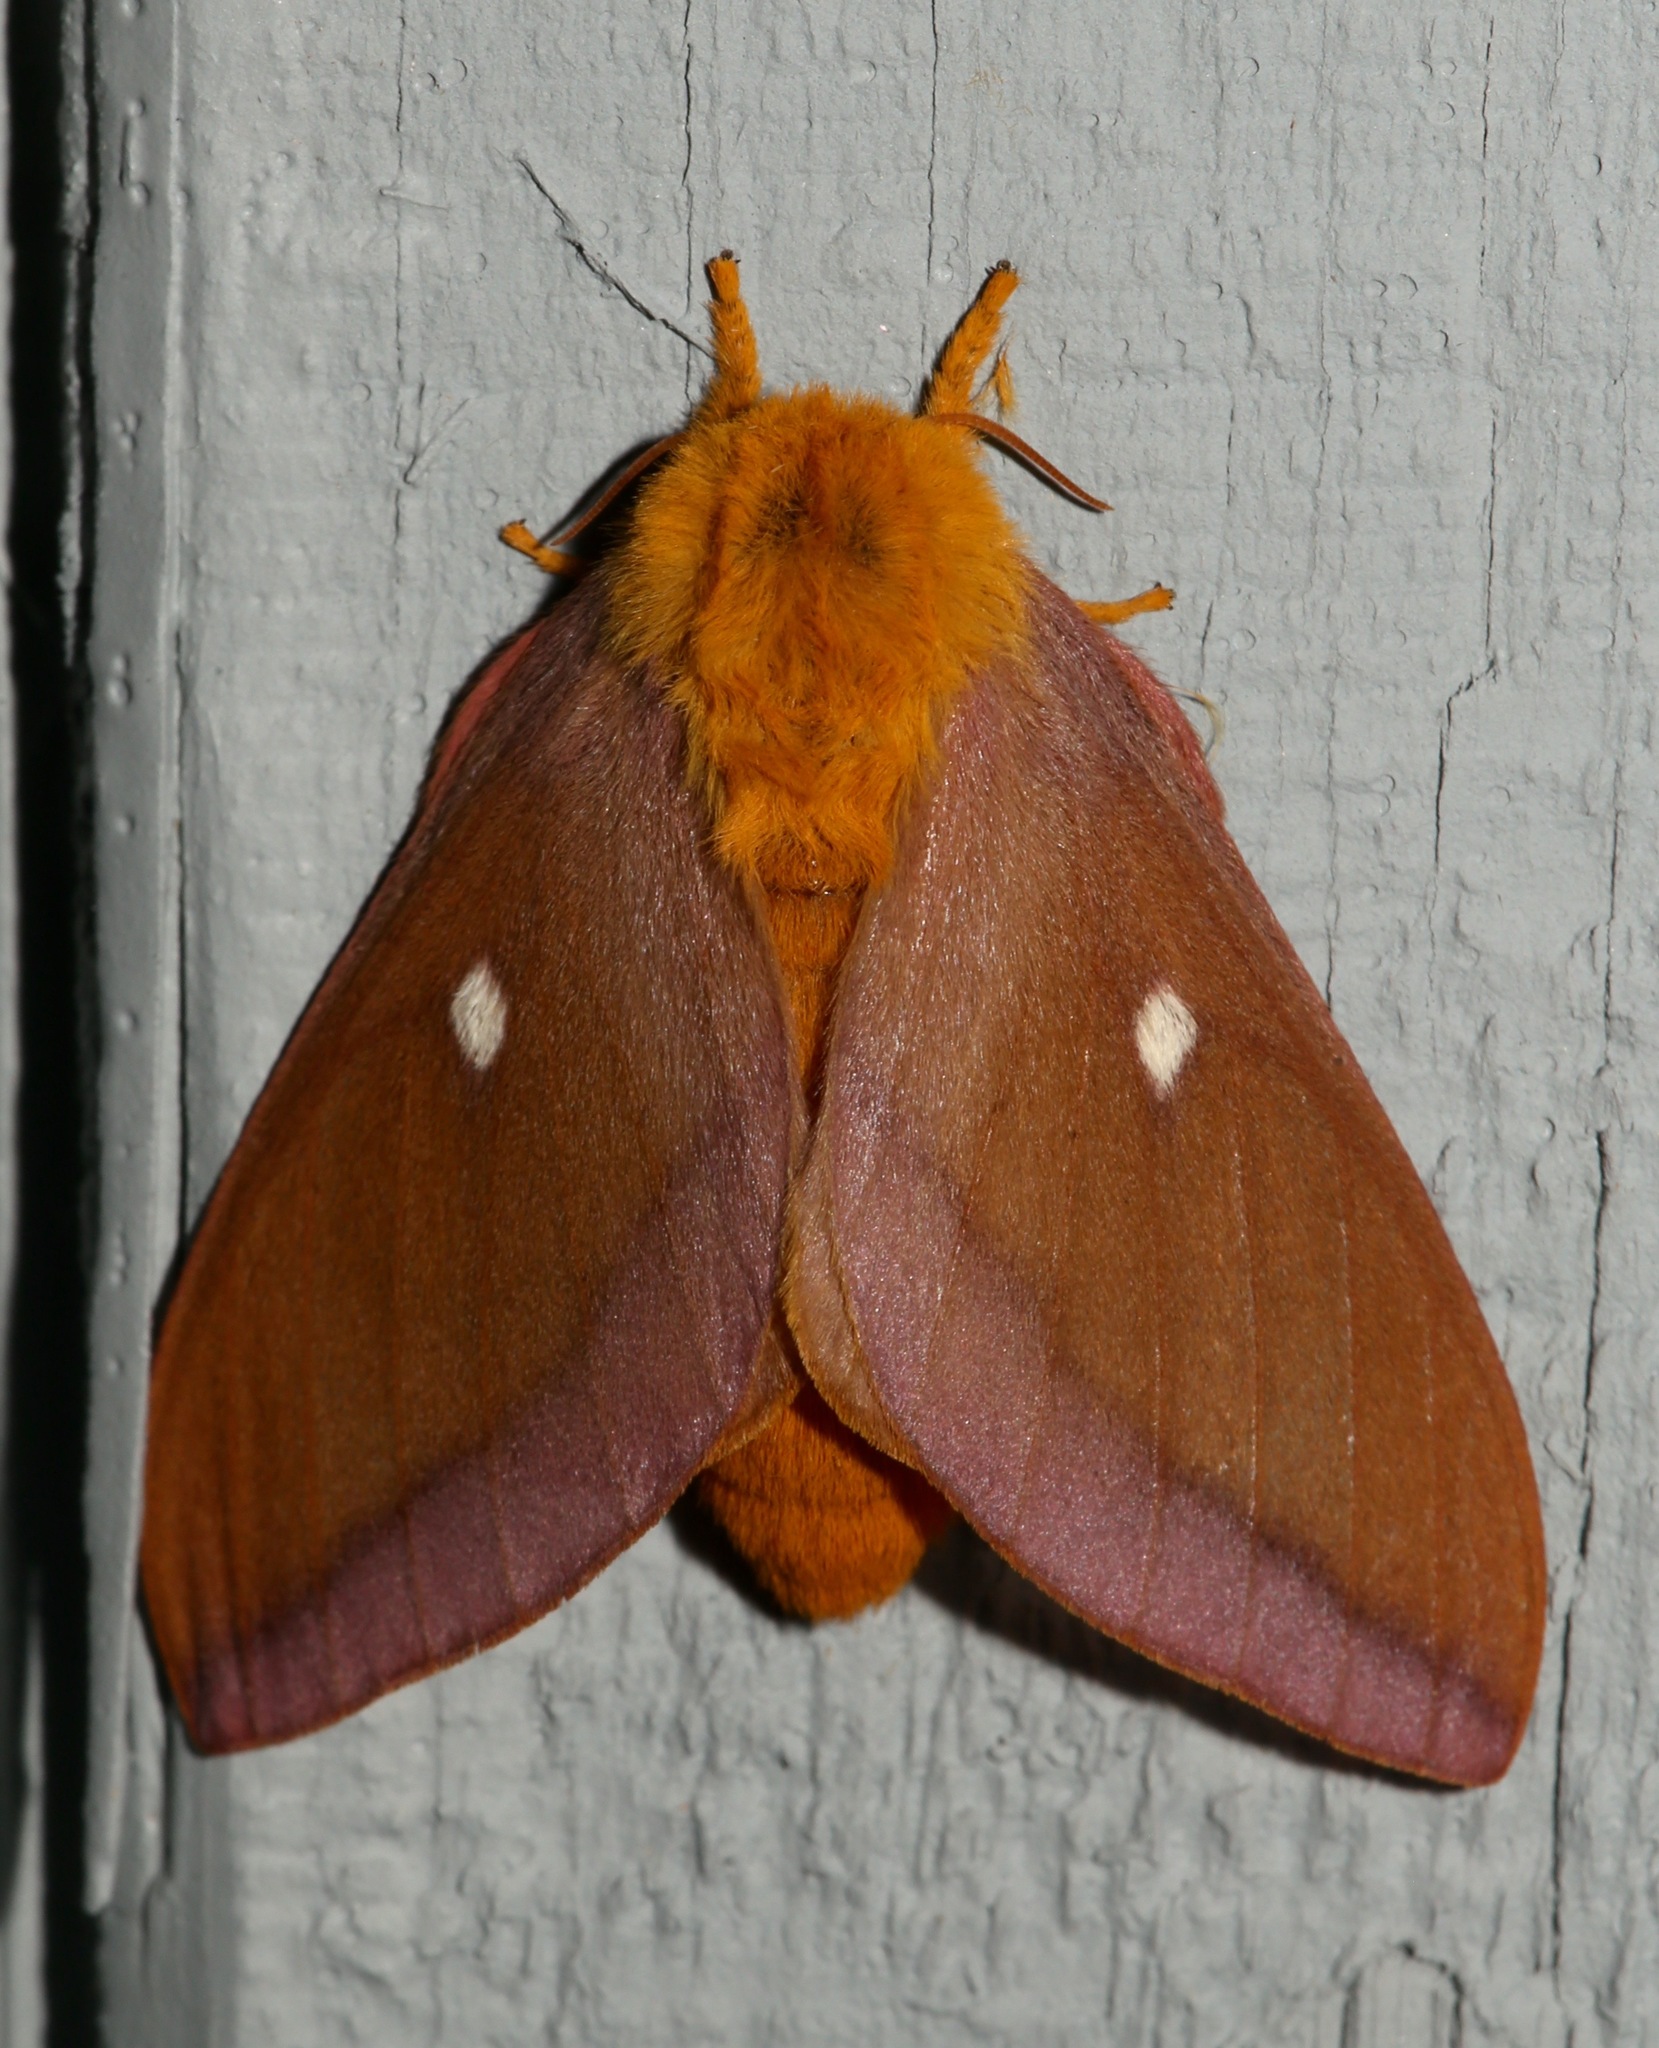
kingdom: Animalia
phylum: Arthropoda
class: Insecta
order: Lepidoptera
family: Saturniidae
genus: Anisota
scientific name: Anisota virginiensis
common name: Pink striped oakworm moth
